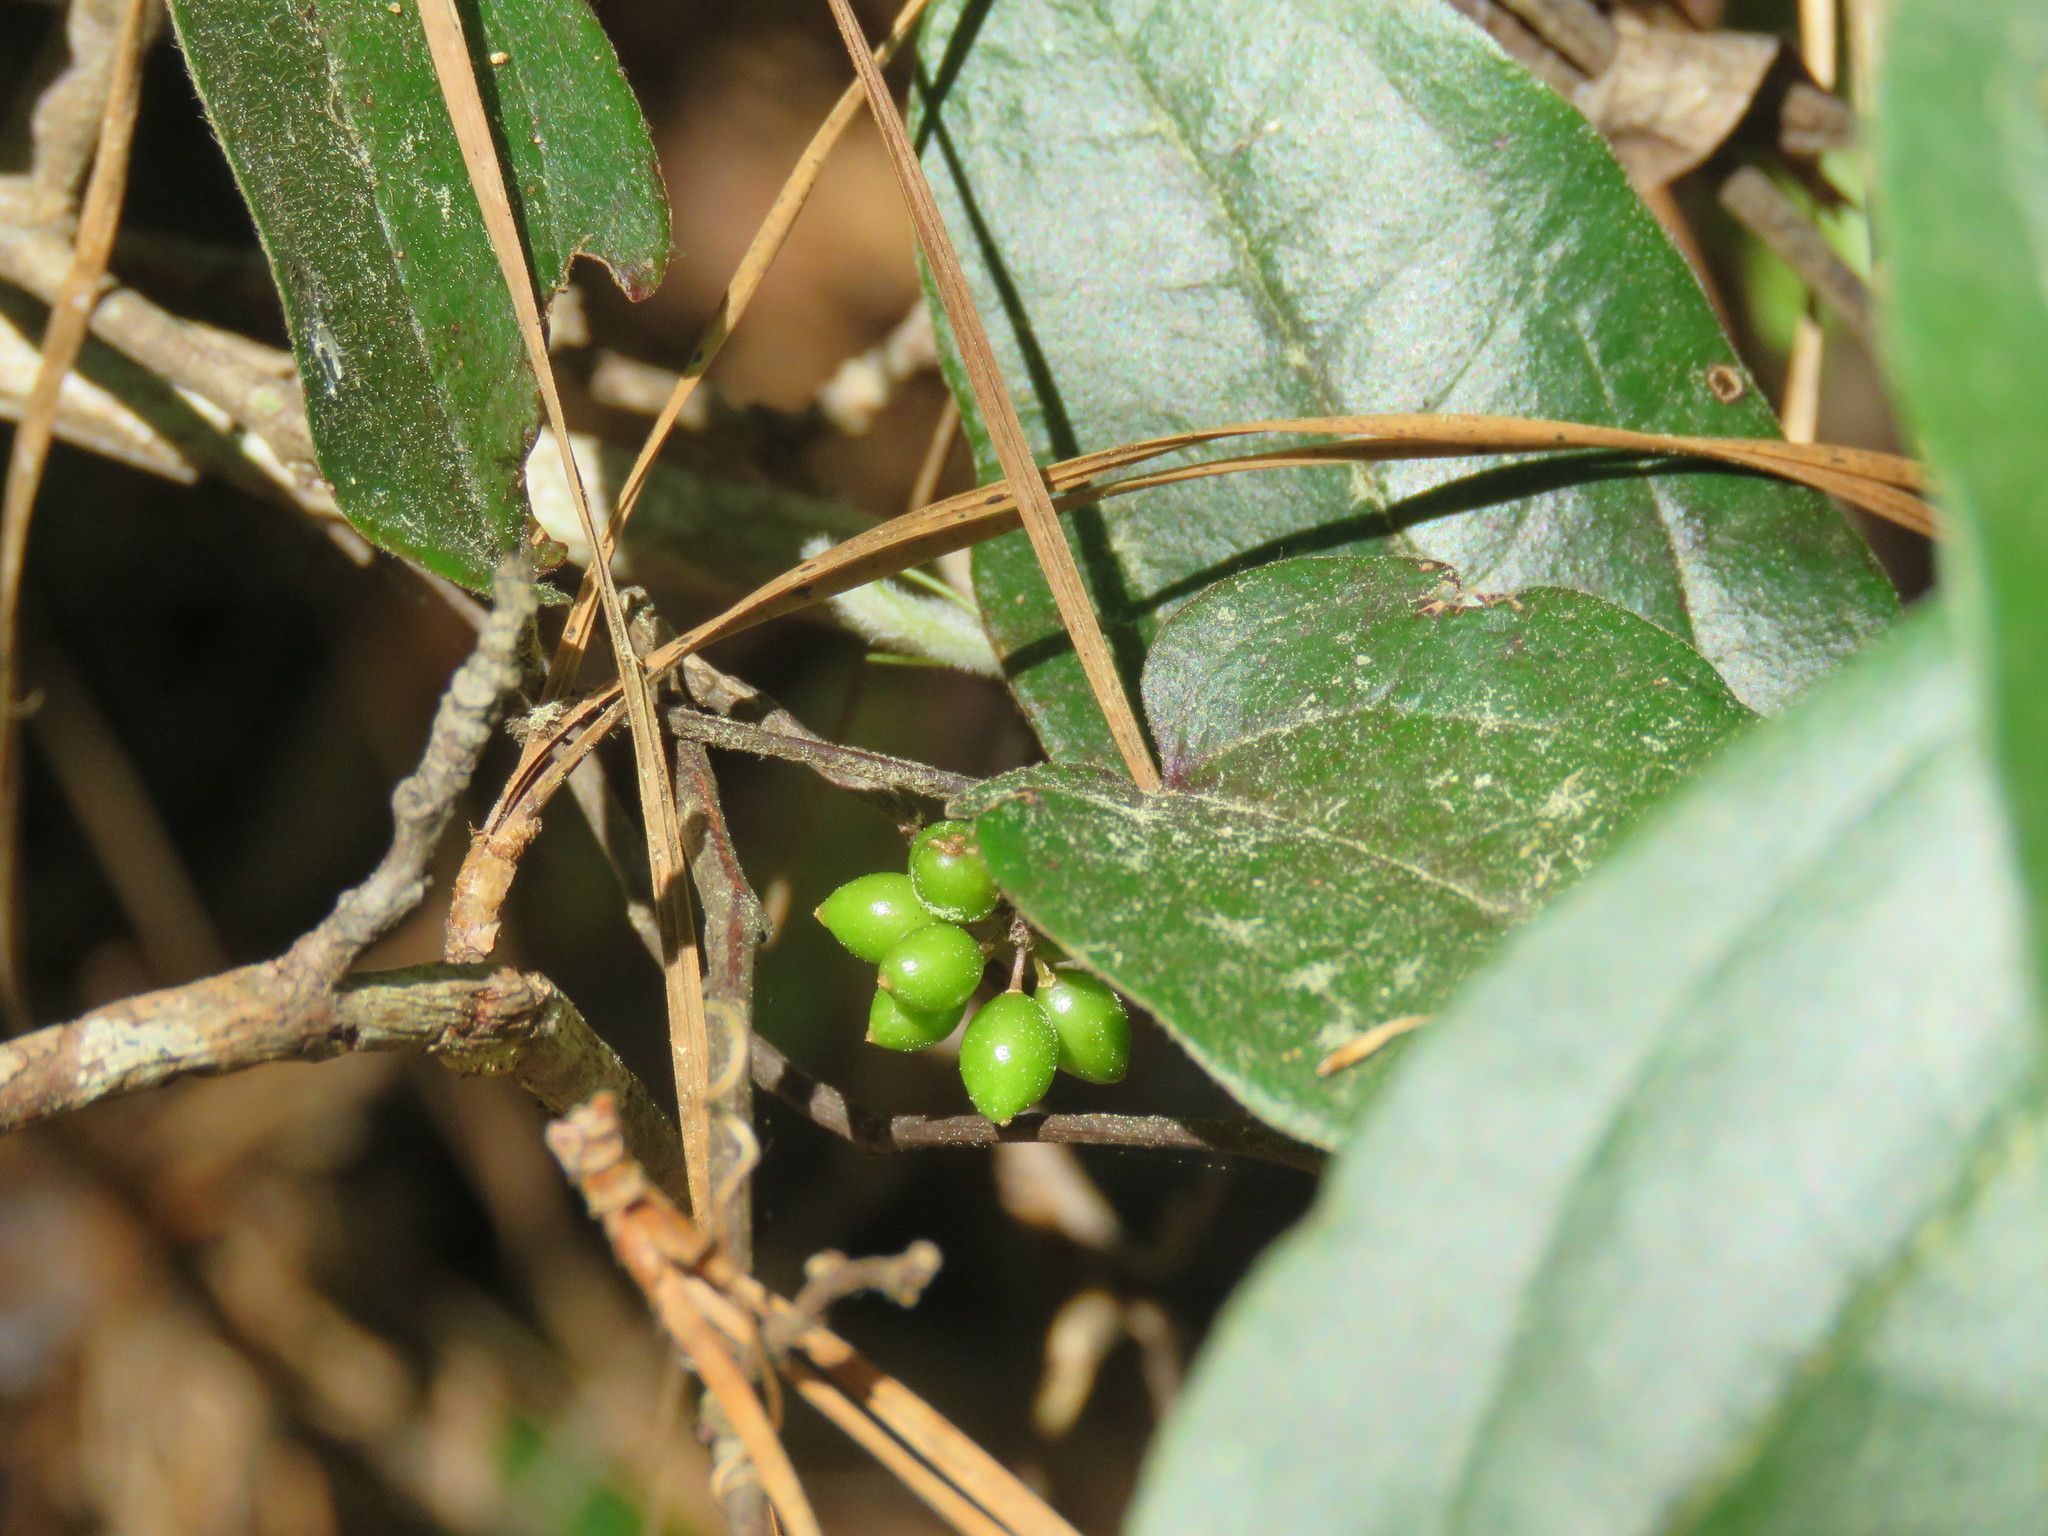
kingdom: Plantae
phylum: Tracheophyta
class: Liliopsida
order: Liliales
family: Smilacaceae
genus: Smilax
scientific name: Smilax pumila
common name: Sarsaparilla-vine
